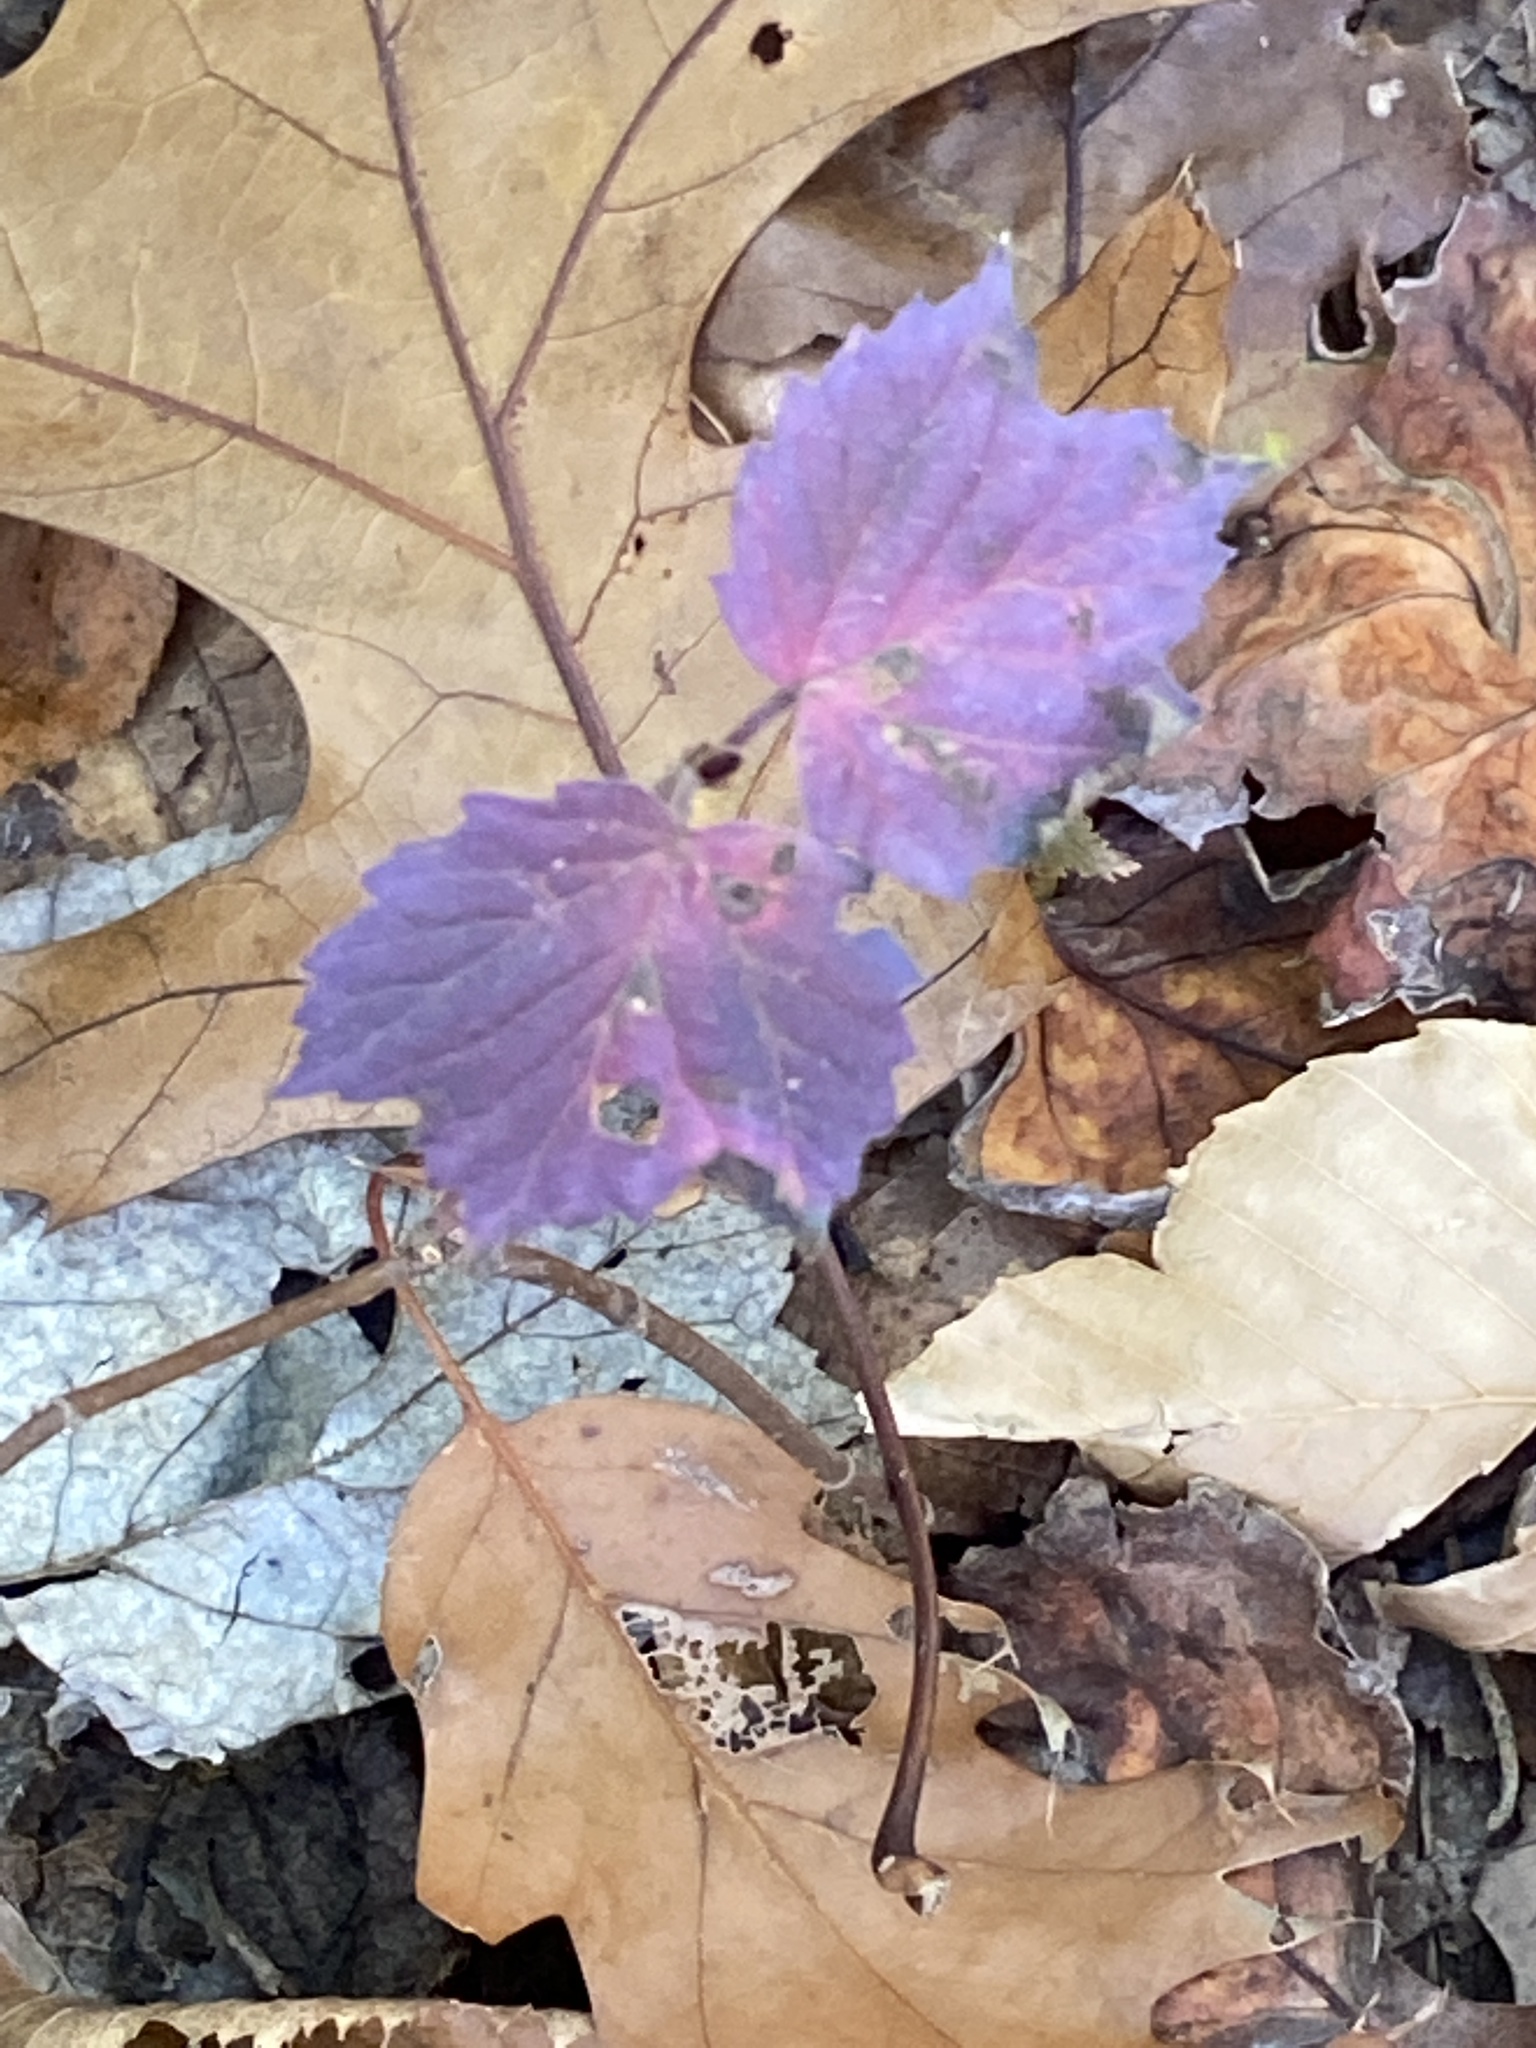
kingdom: Plantae
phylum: Tracheophyta
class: Magnoliopsida
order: Dipsacales
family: Viburnaceae
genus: Viburnum
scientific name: Viburnum acerifolium
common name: Dockmackie
